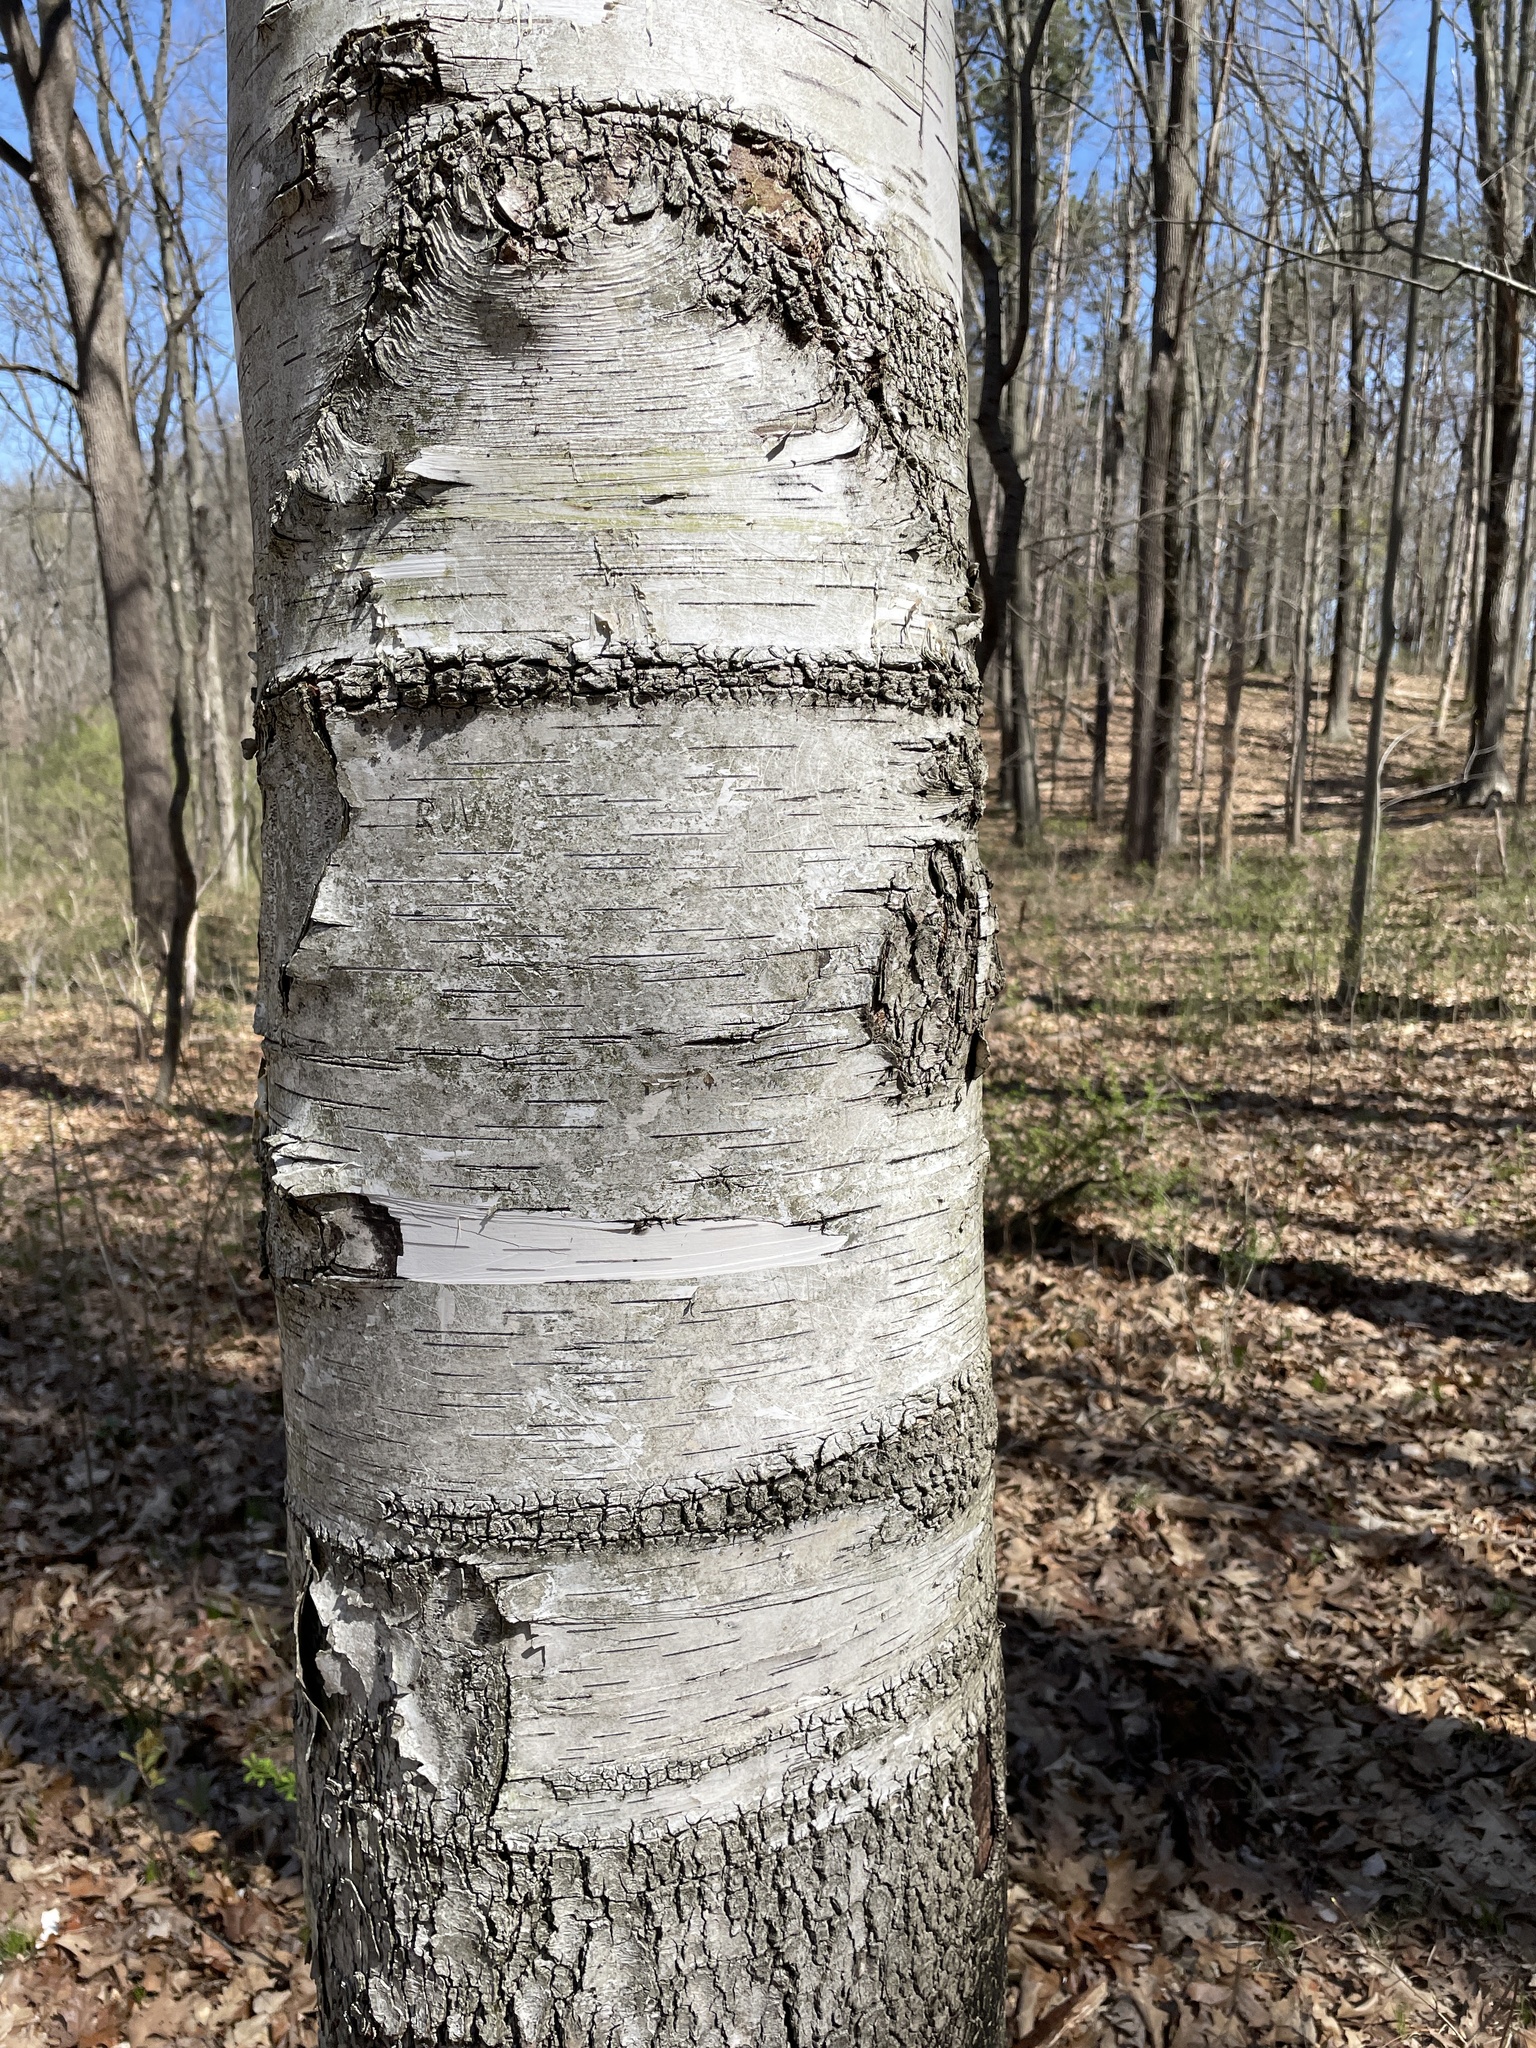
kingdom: Plantae
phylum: Tracheophyta
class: Magnoliopsida
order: Fagales
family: Betulaceae
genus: Betula
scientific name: Betula papyrifera
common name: Paper birch
